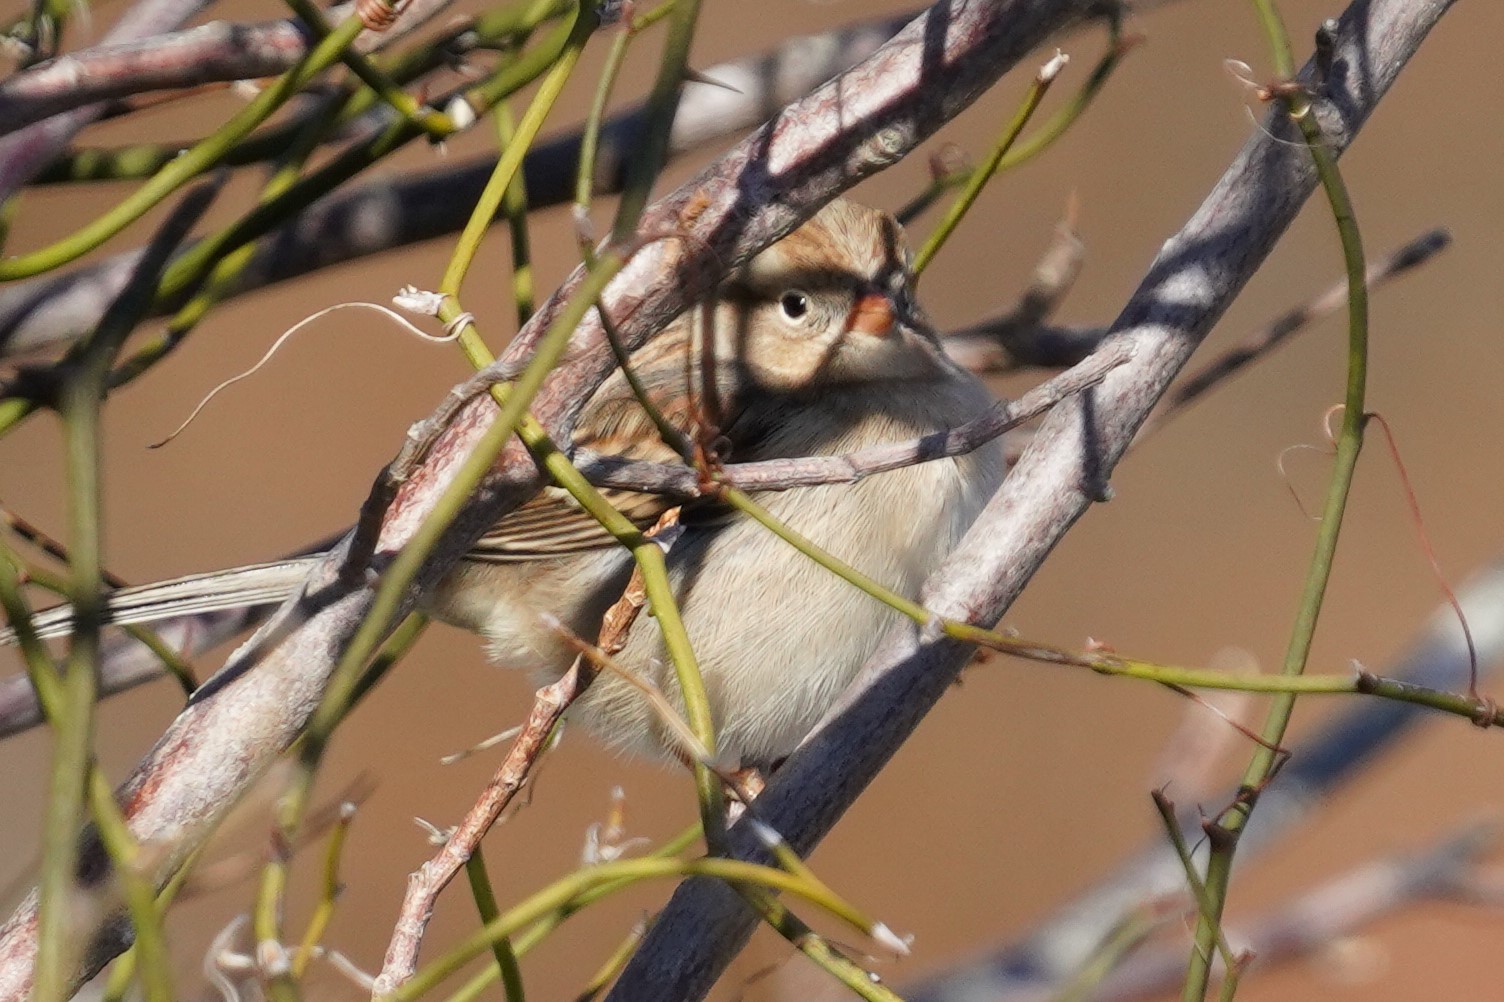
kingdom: Animalia
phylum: Chordata
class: Aves
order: Passeriformes
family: Passerellidae
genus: Spizella
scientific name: Spizella pusilla
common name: Field sparrow
